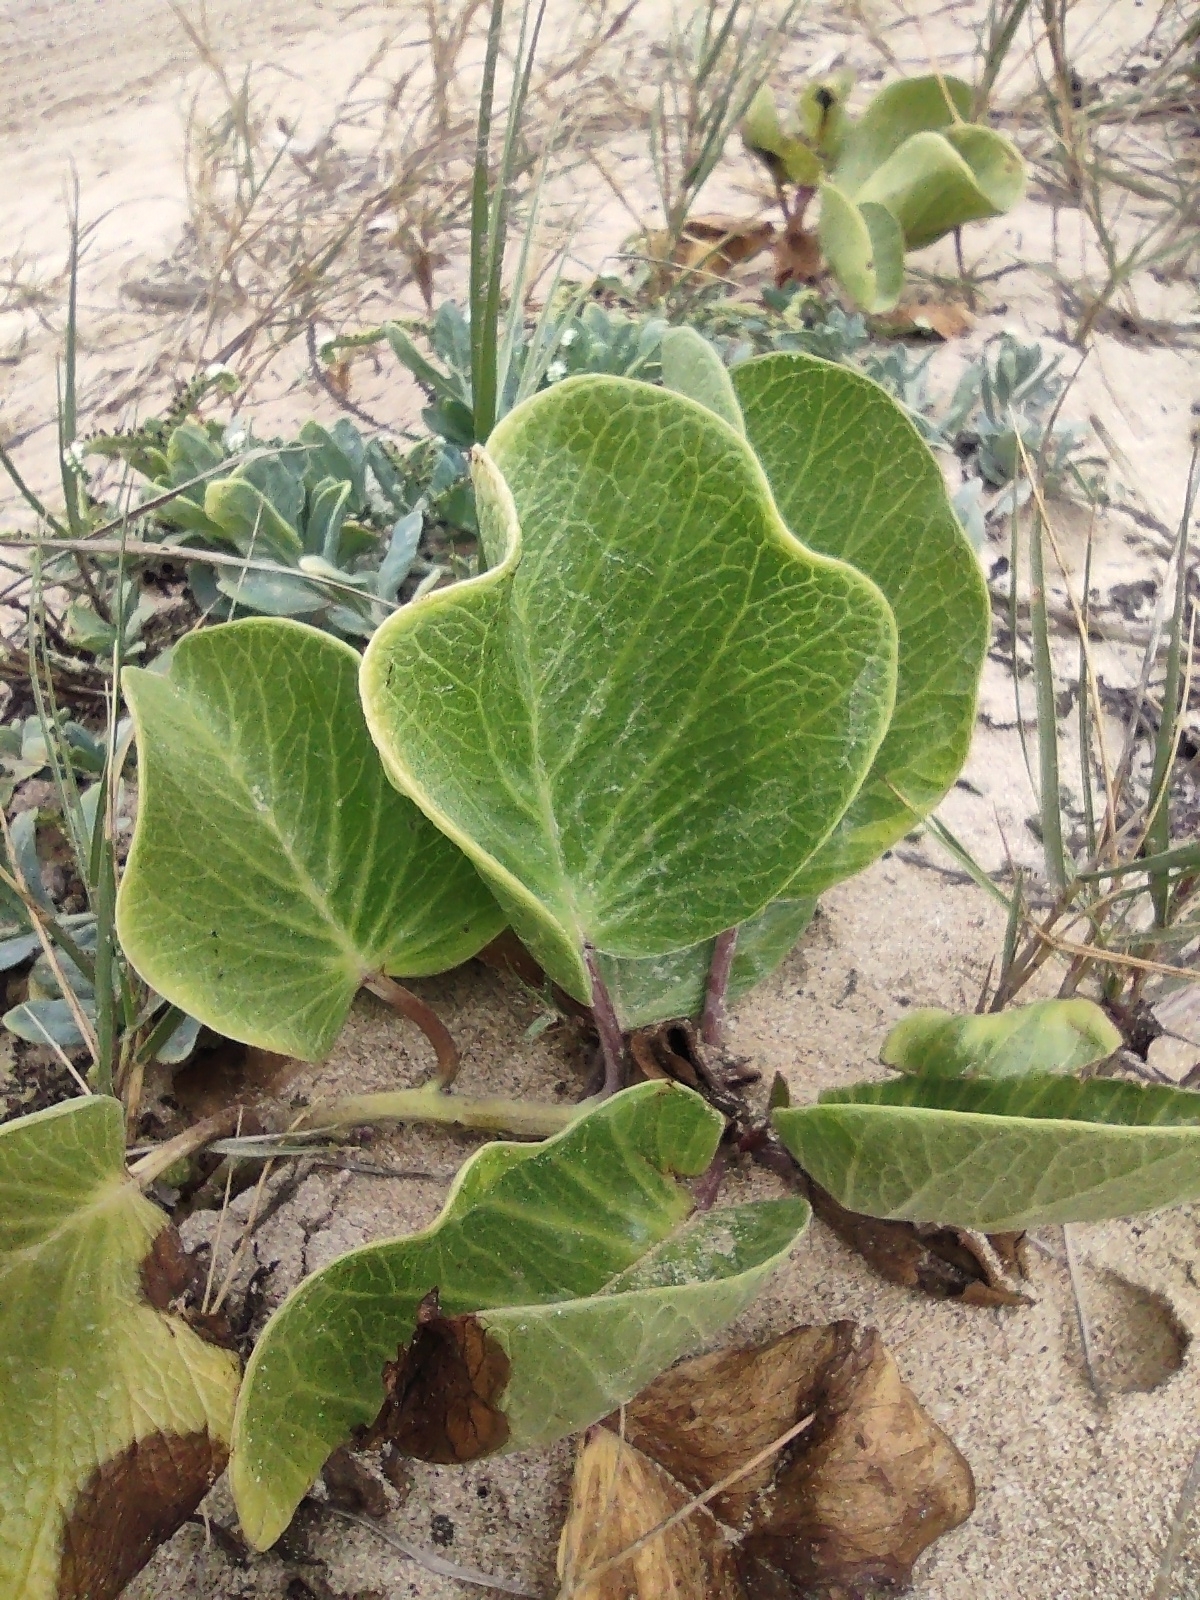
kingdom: Plantae
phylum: Tracheophyta
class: Magnoliopsida
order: Solanales
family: Convolvulaceae
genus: Ipomoea
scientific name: Ipomoea pes-caprae
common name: Beach morning glory
